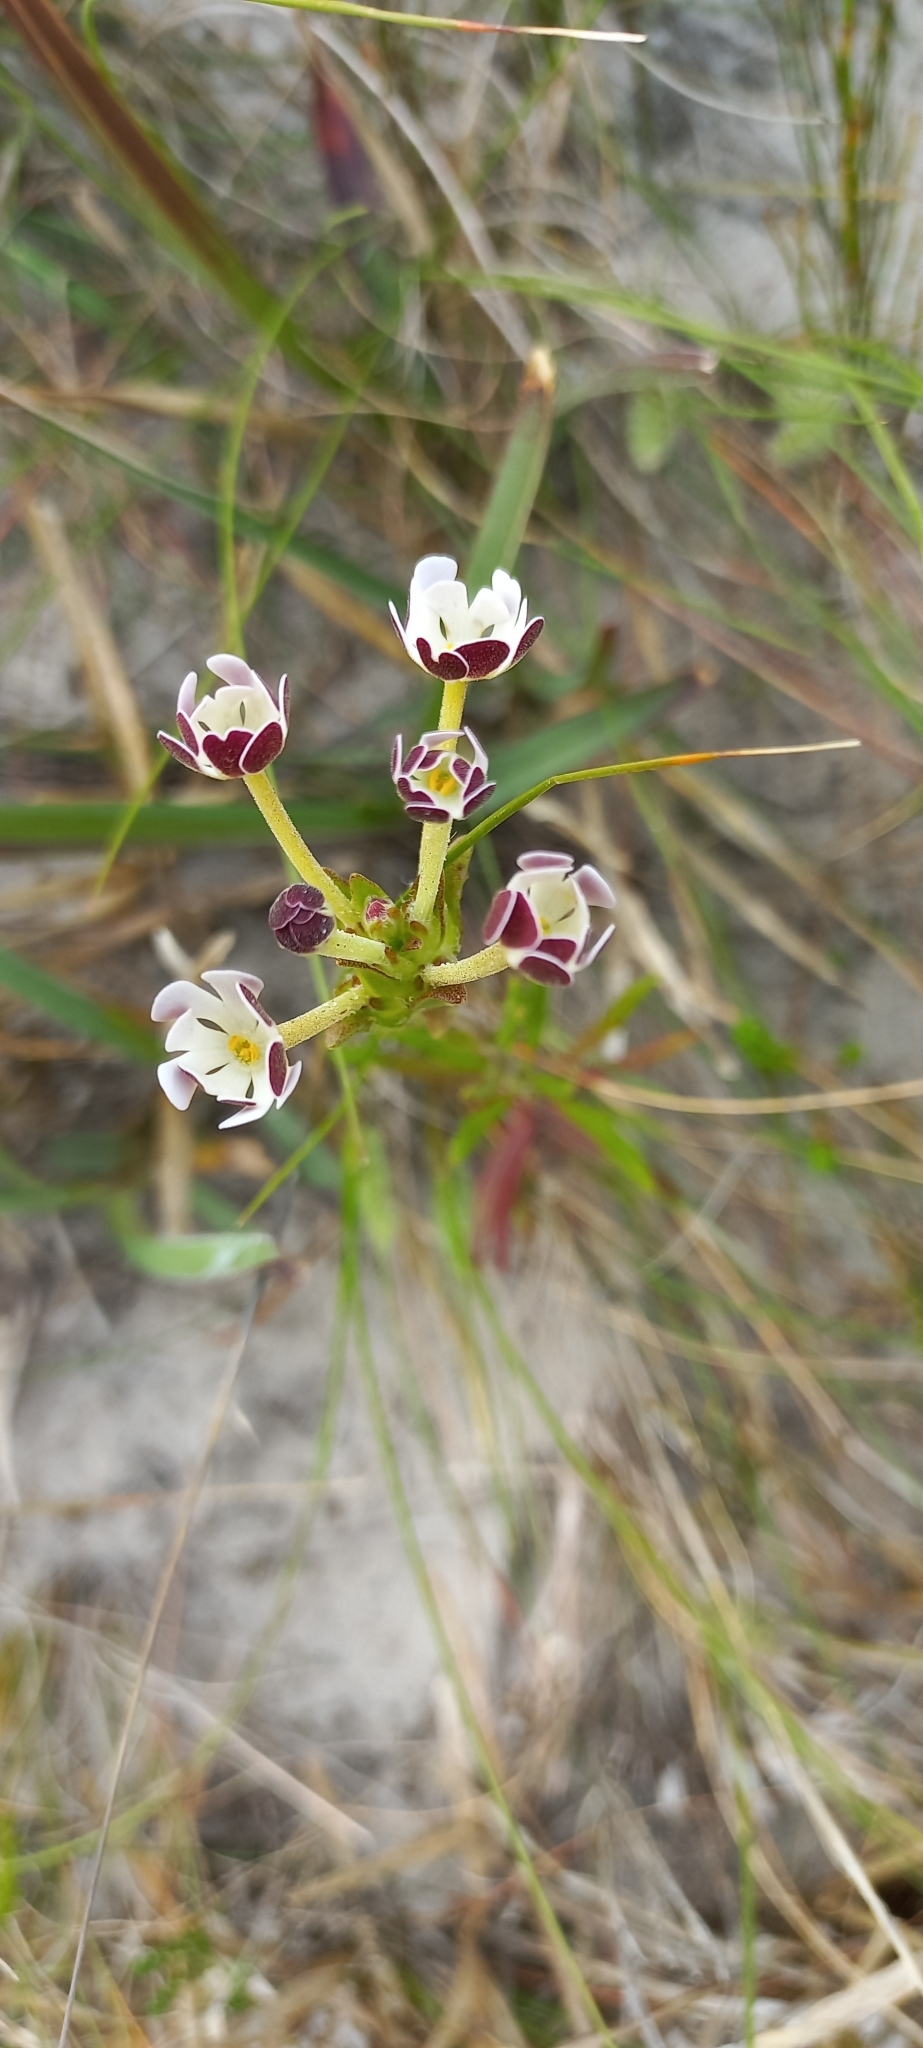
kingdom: Plantae
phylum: Tracheophyta
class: Magnoliopsida
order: Lamiales
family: Scrophulariaceae
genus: Zaluzianskya
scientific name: Zaluzianskya capensis
